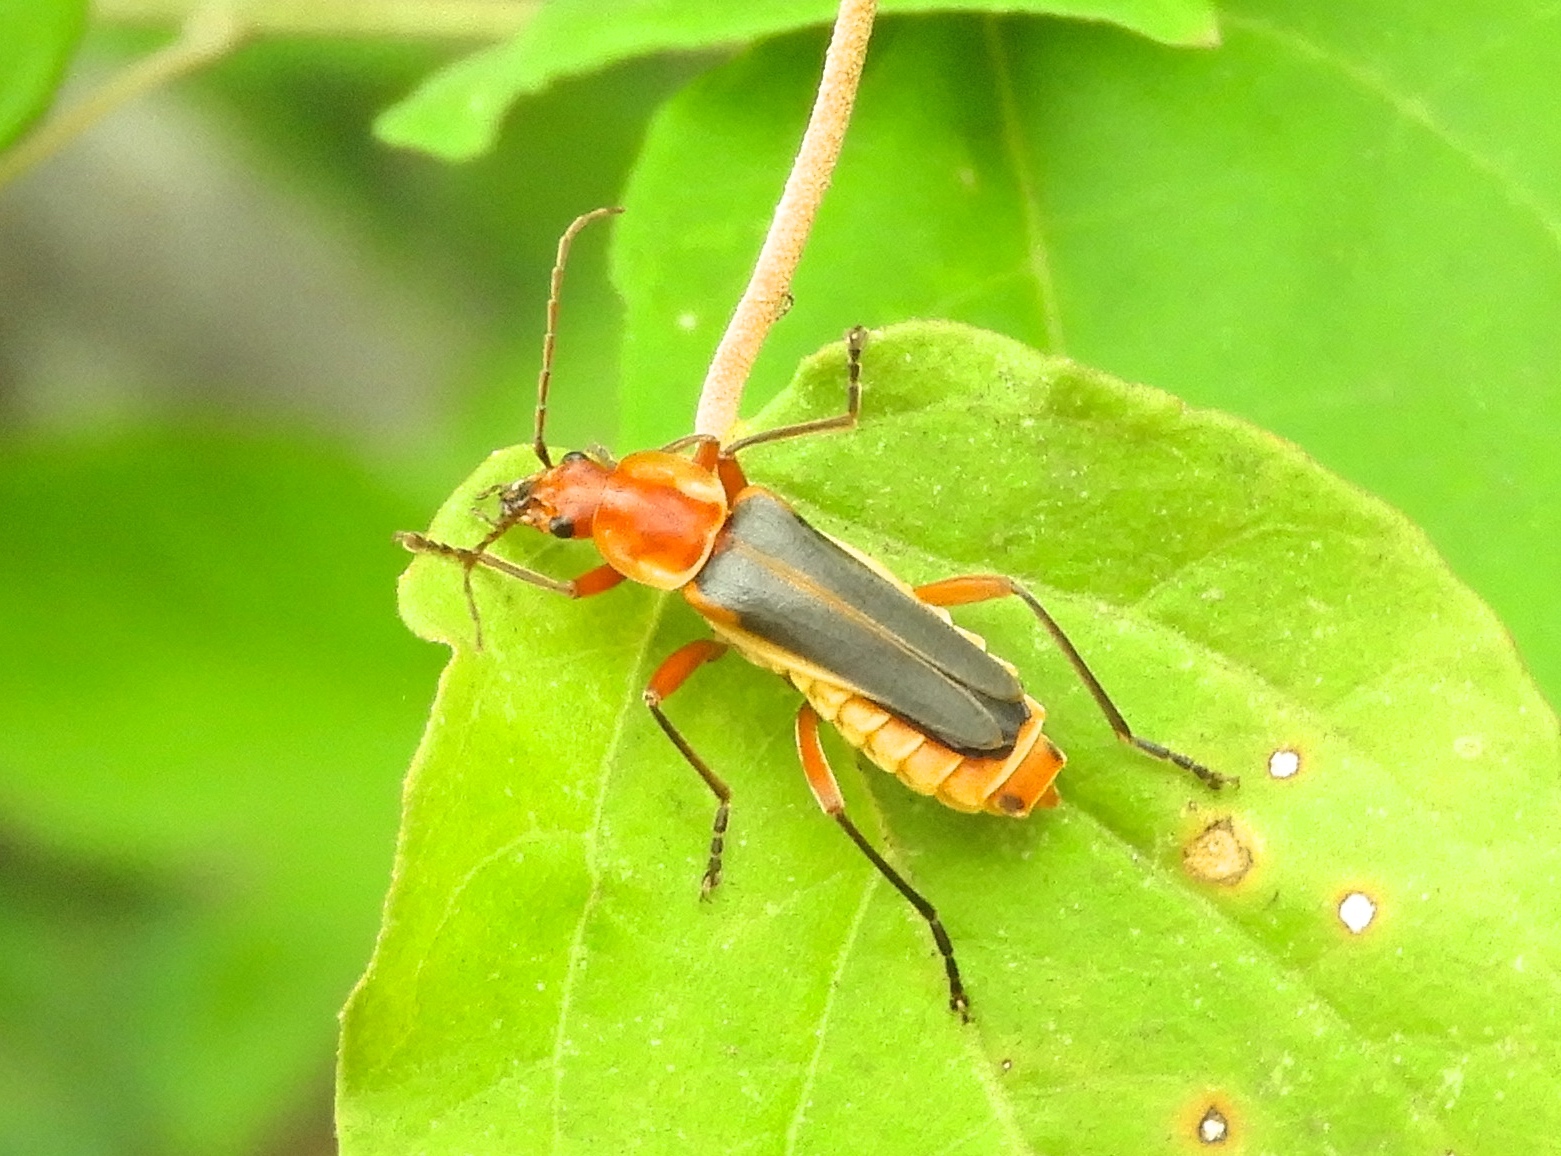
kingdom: Animalia
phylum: Arthropoda
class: Insecta
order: Coleoptera
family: Cantharidae
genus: Chauliognathus
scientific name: Chauliognathus
